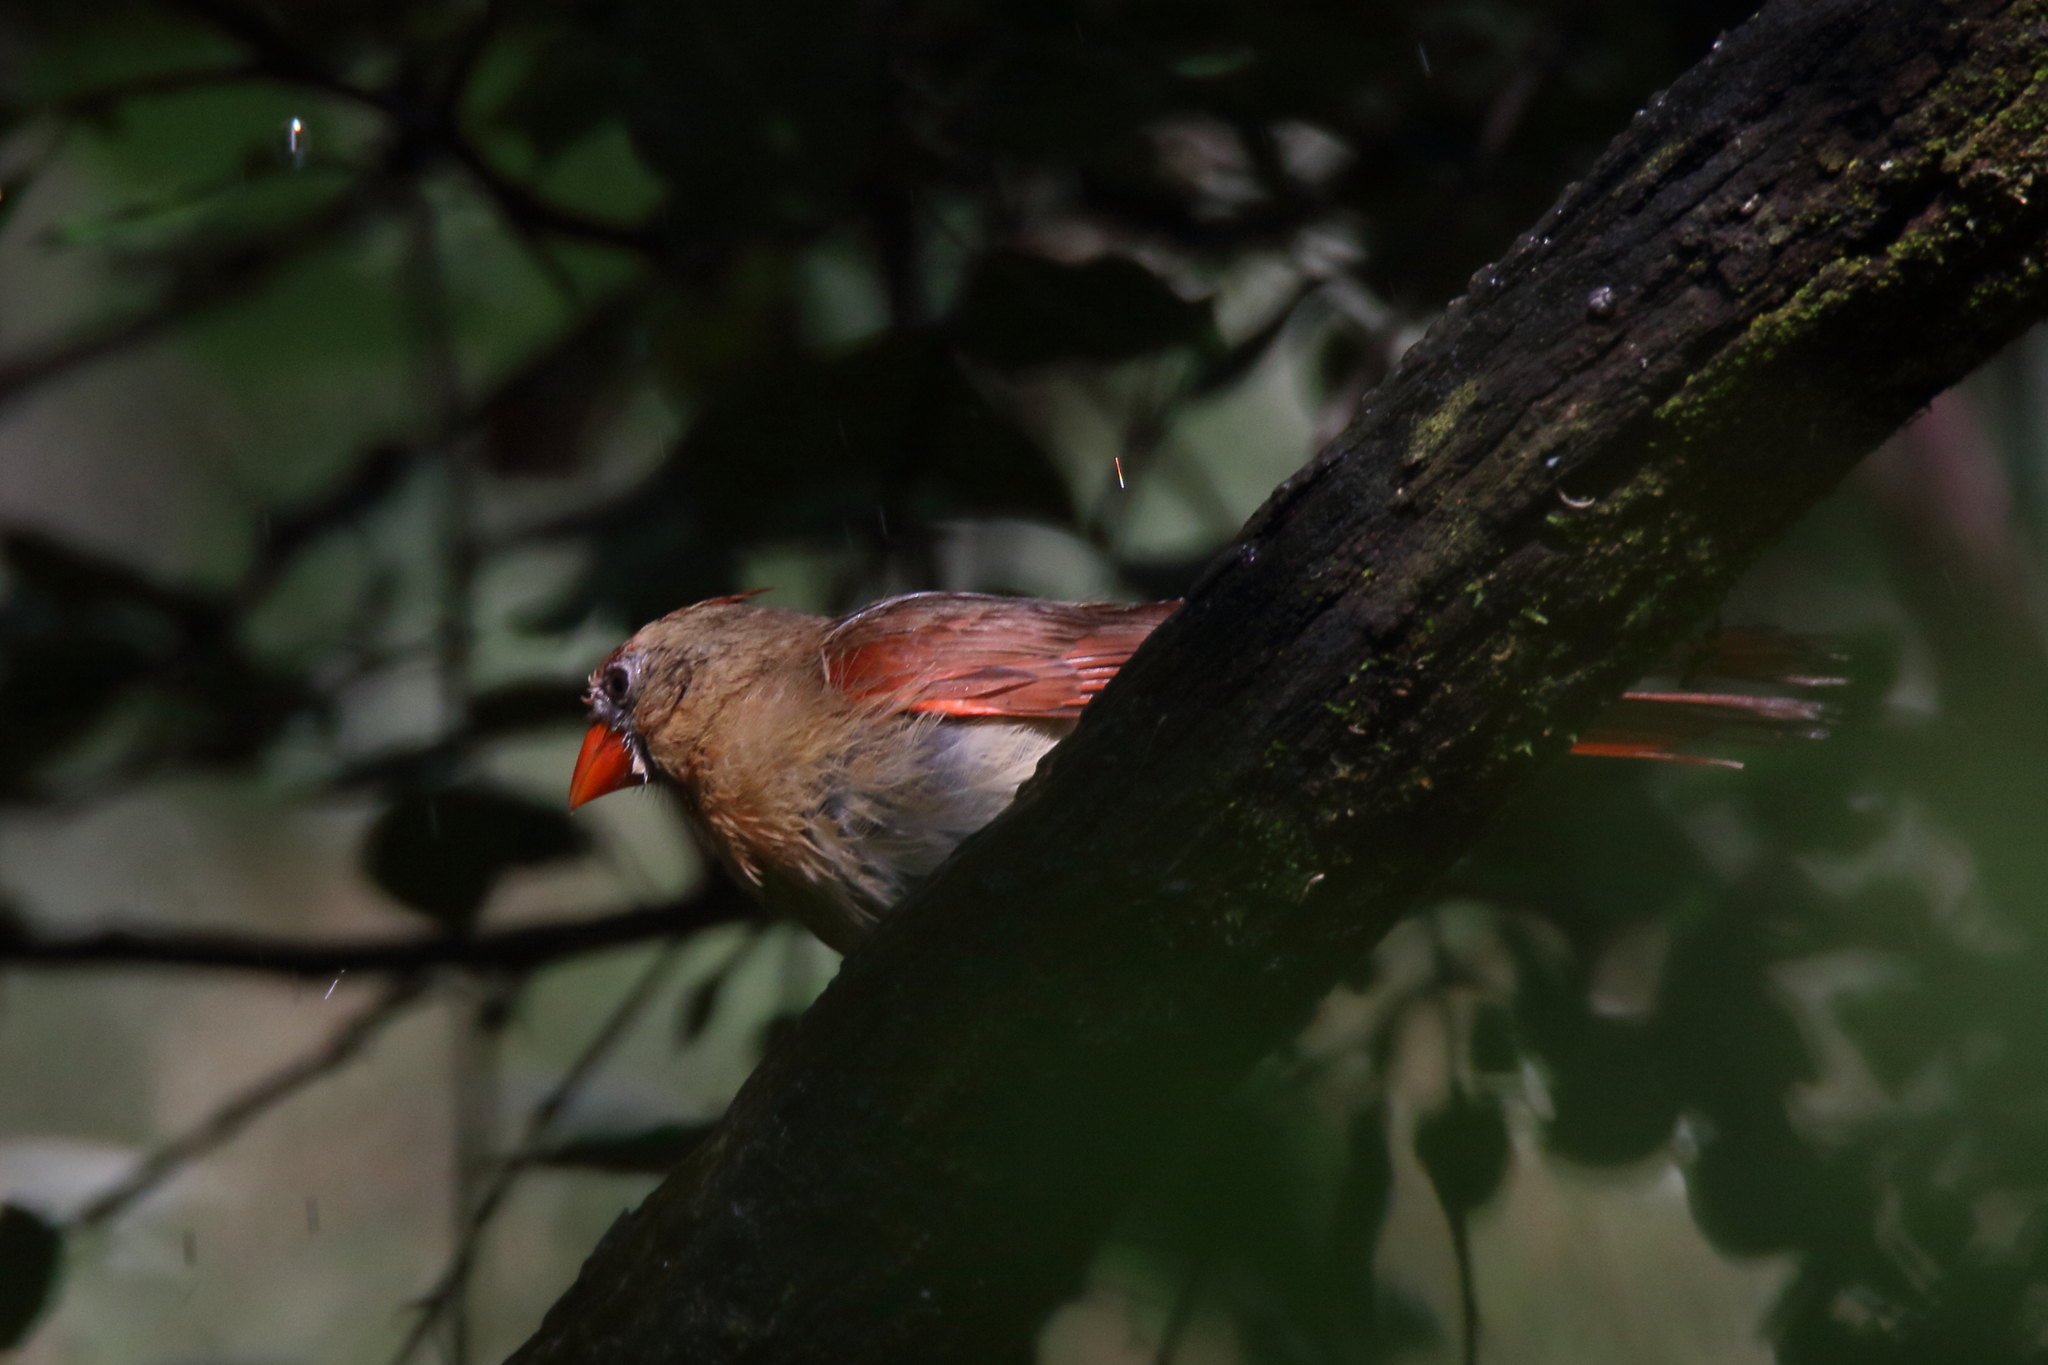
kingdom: Animalia
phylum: Chordata
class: Aves
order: Passeriformes
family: Cardinalidae
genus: Cardinalis
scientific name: Cardinalis cardinalis
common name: Northern cardinal
